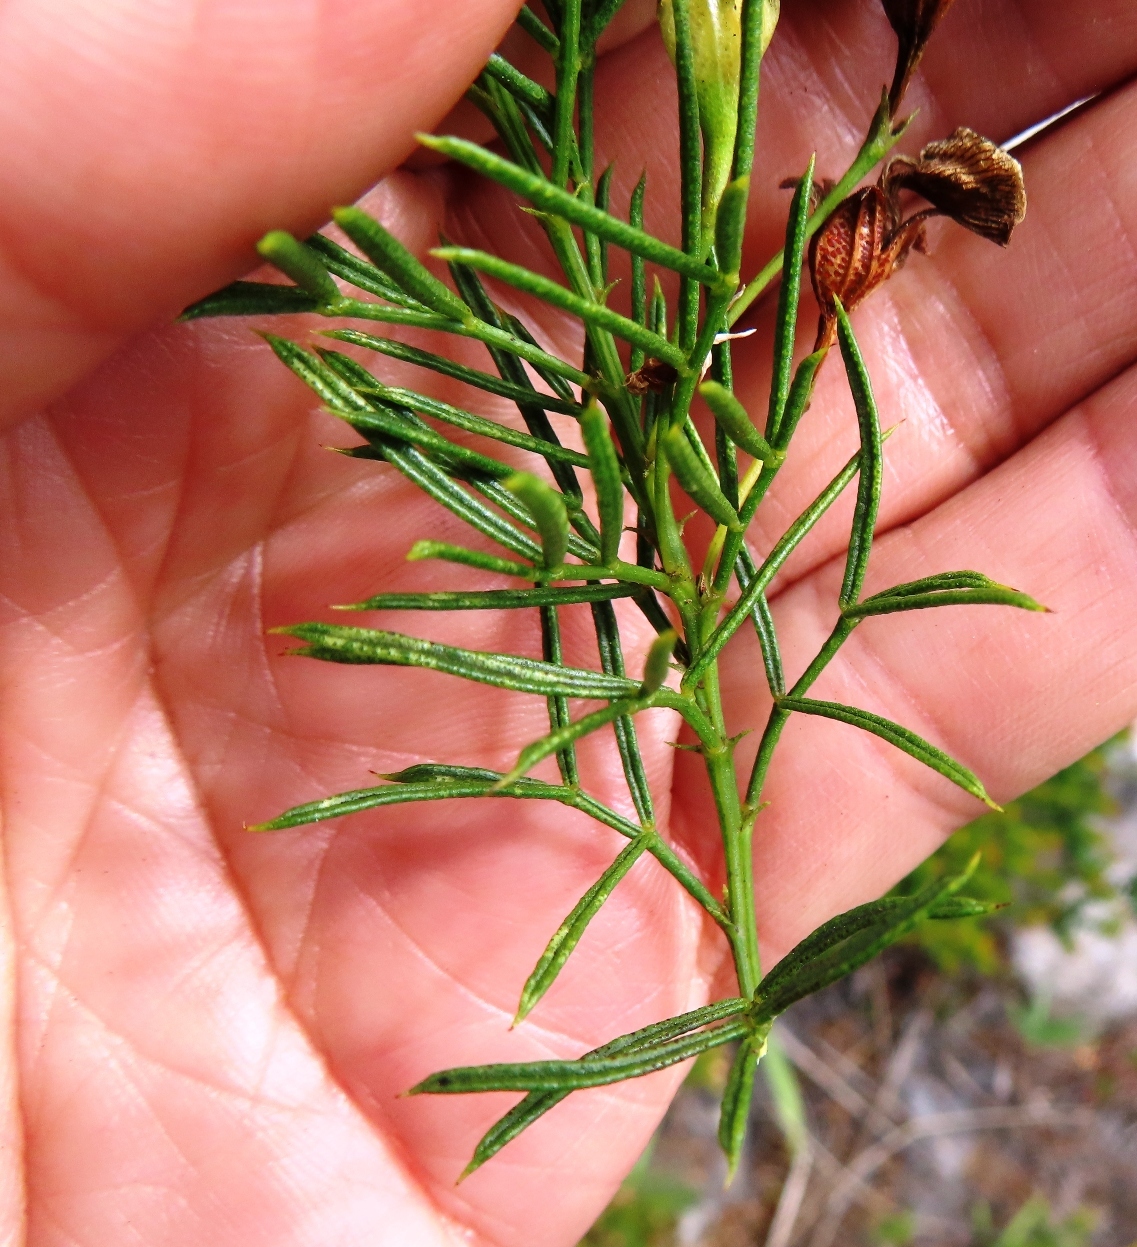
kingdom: Plantae
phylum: Tracheophyta
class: Magnoliopsida
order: Fabales
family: Fabaceae
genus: Psoralea
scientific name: Psoralea azuroides
